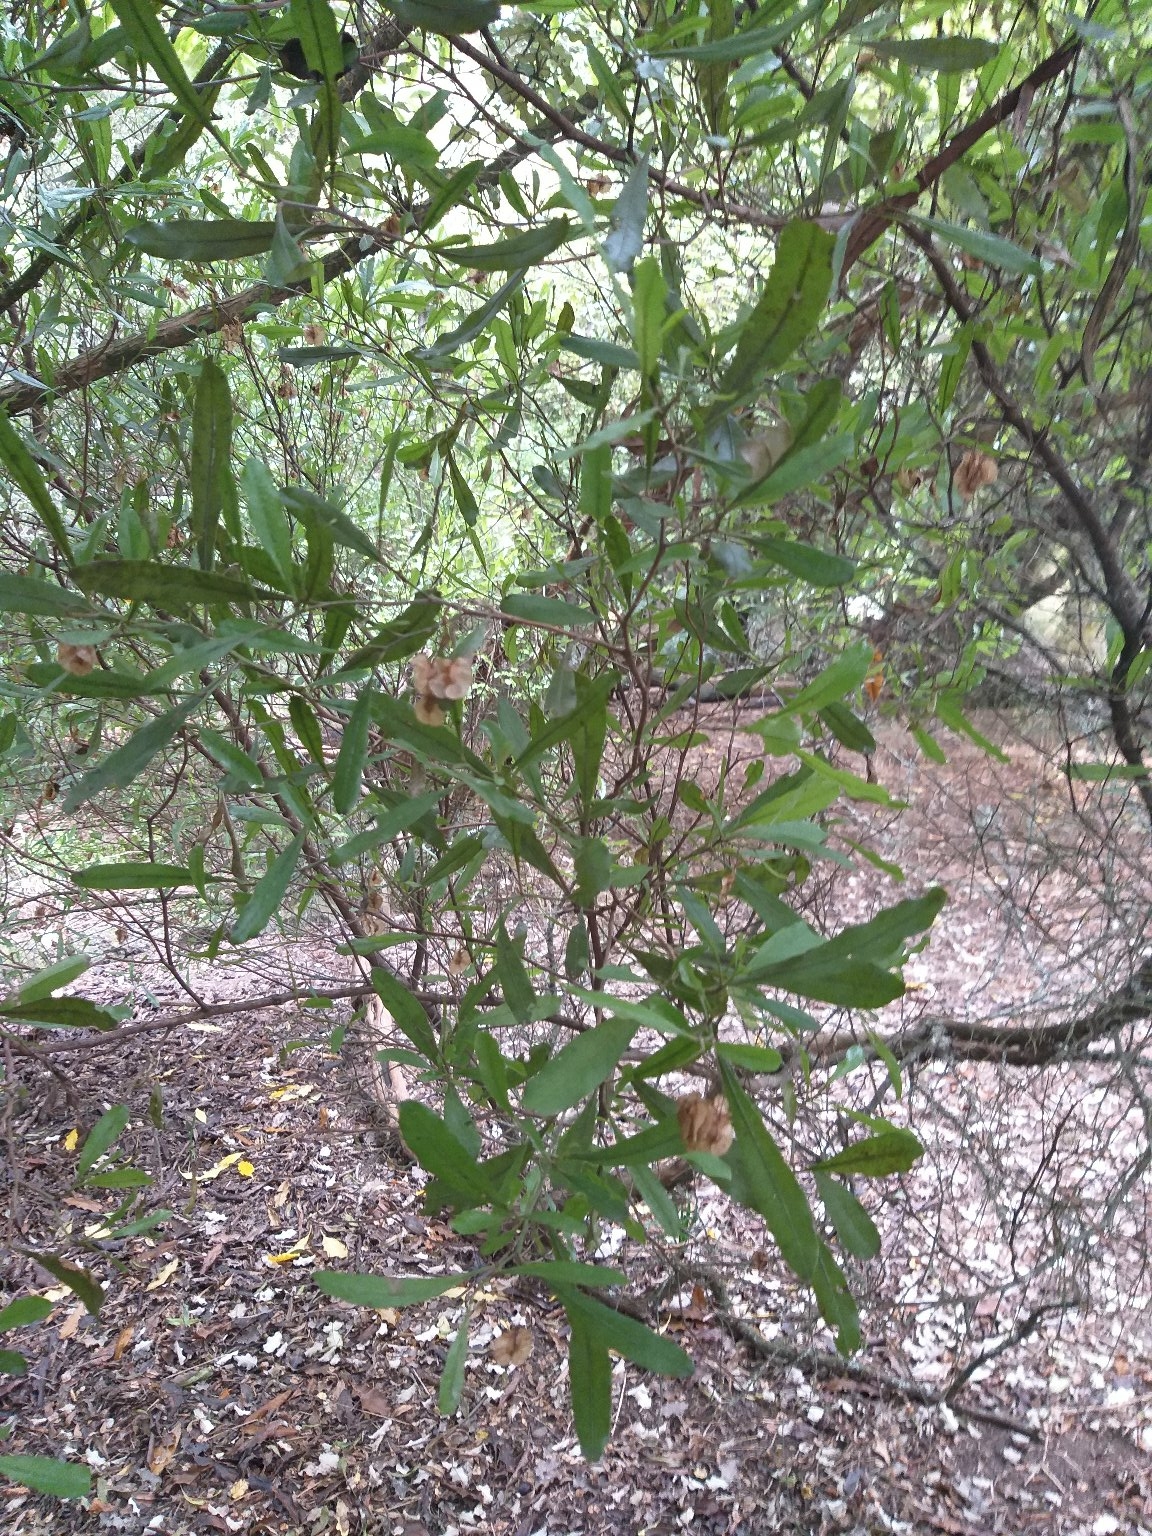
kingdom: Plantae
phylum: Tracheophyta
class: Magnoliopsida
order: Sapindales
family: Sapindaceae
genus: Dodonaea
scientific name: Dodonaea viscosa
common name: Hopbush
